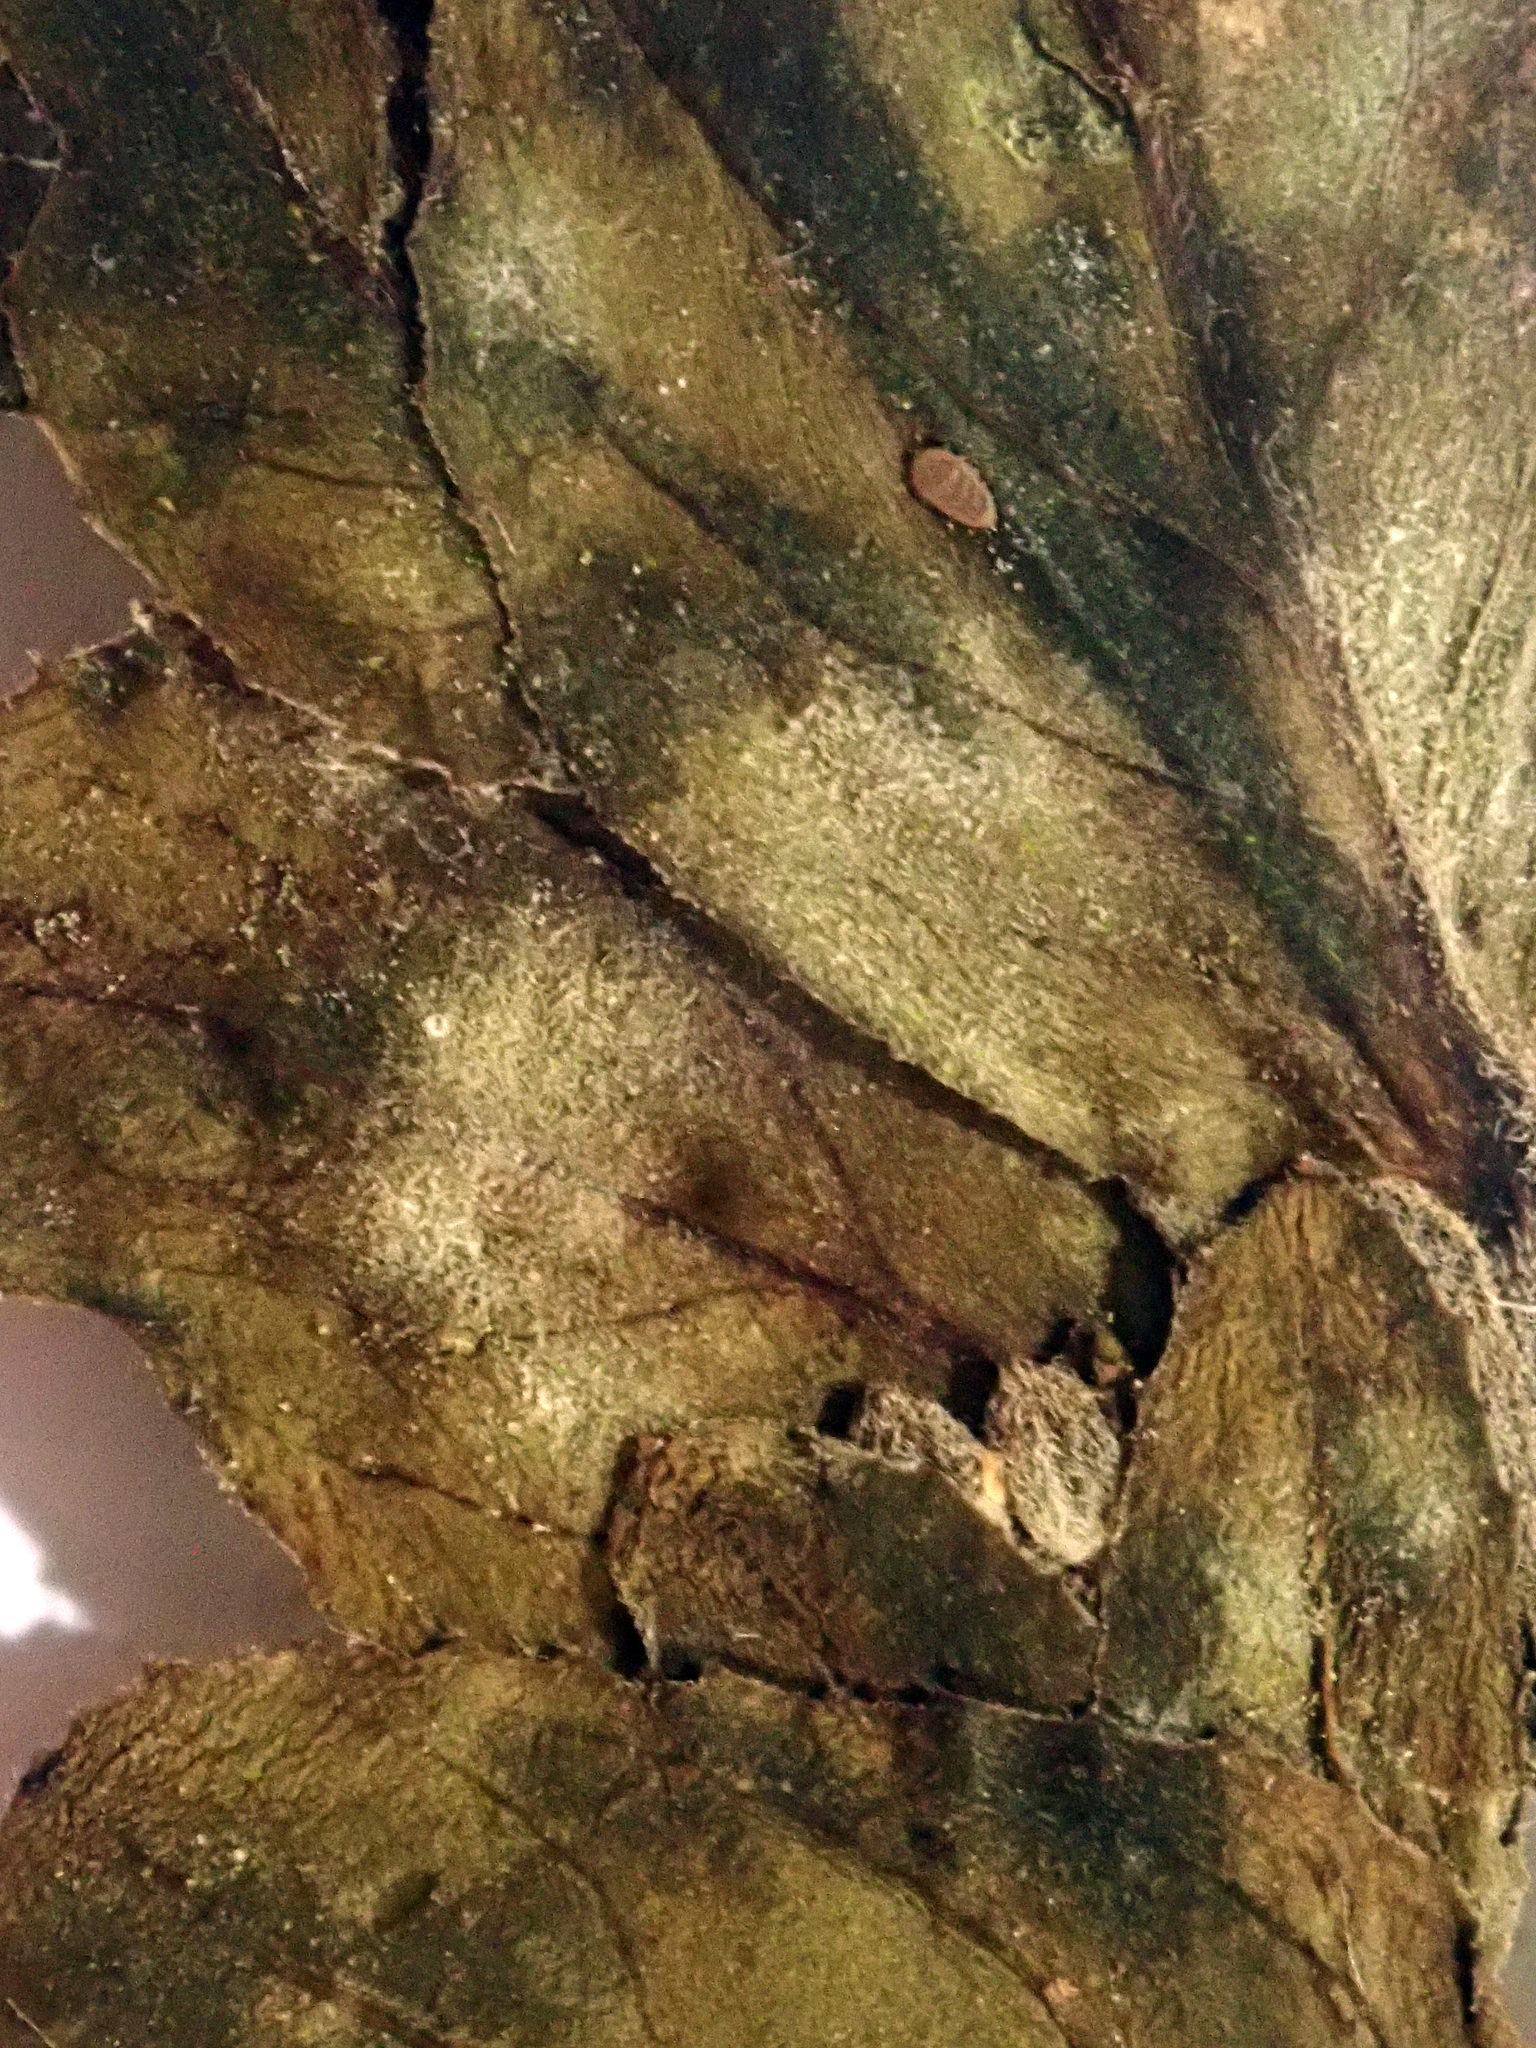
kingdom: Fungi
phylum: Ascomycota
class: Leotiomycetes
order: Helotiales
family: Erysiphaceae
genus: Podosphaera
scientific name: Podosphaera epilobii
